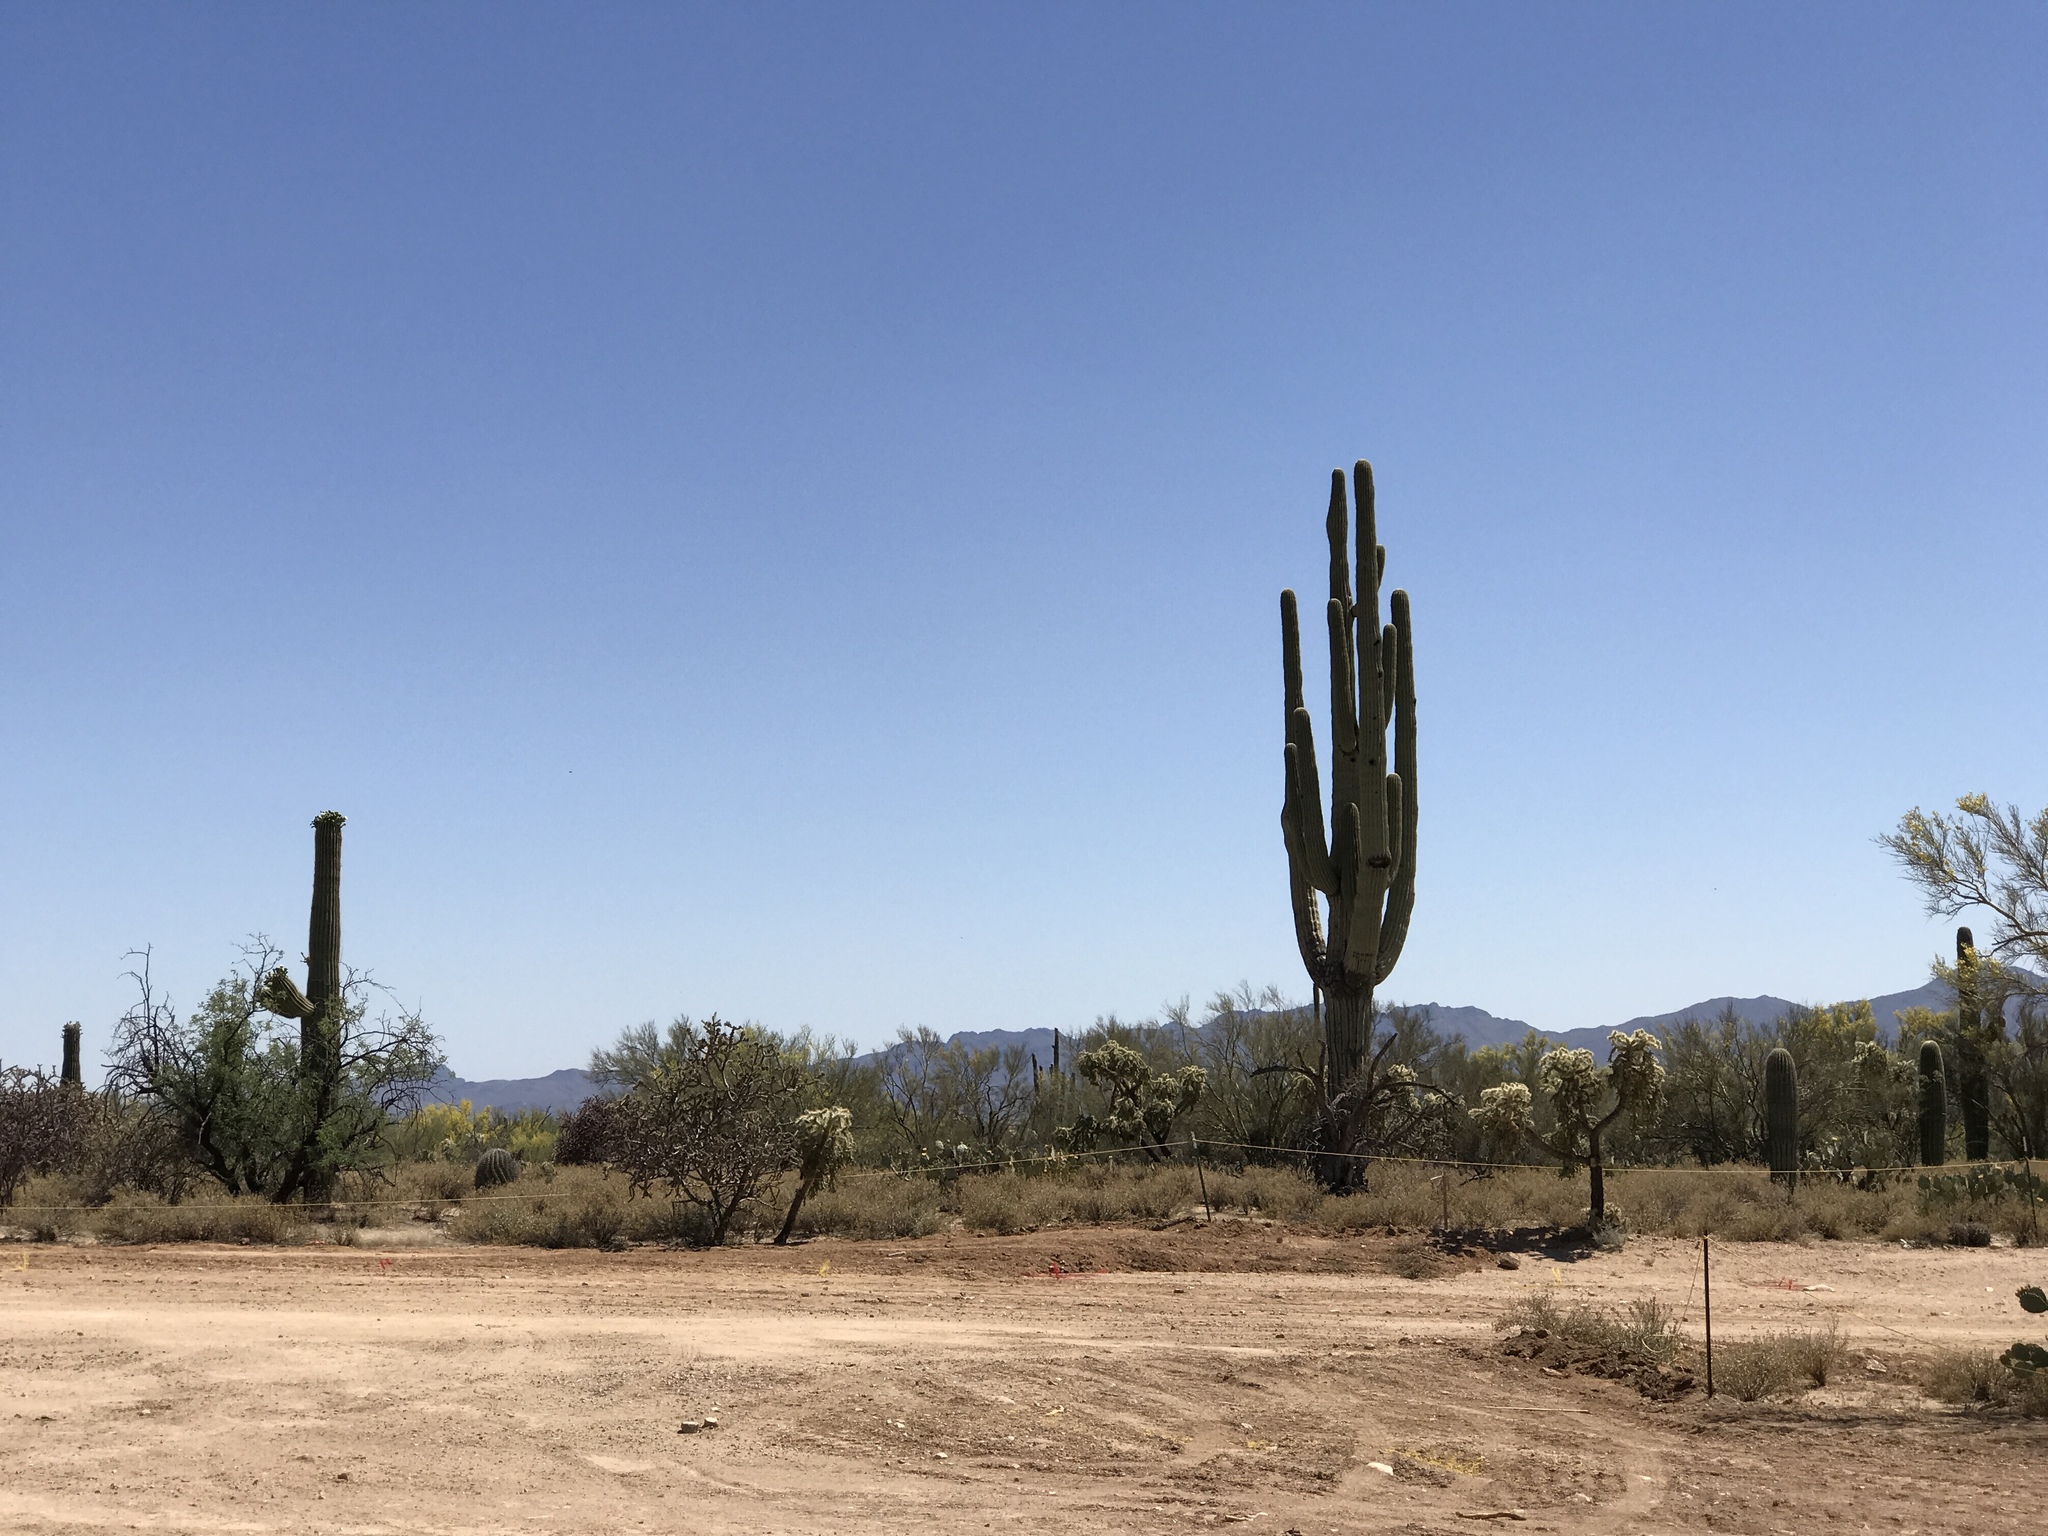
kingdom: Plantae
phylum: Tracheophyta
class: Magnoliopsida
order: Caryophyllales
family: Cactaceae
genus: Carnegiea
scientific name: Carnegiea gigantea
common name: Saguaro
